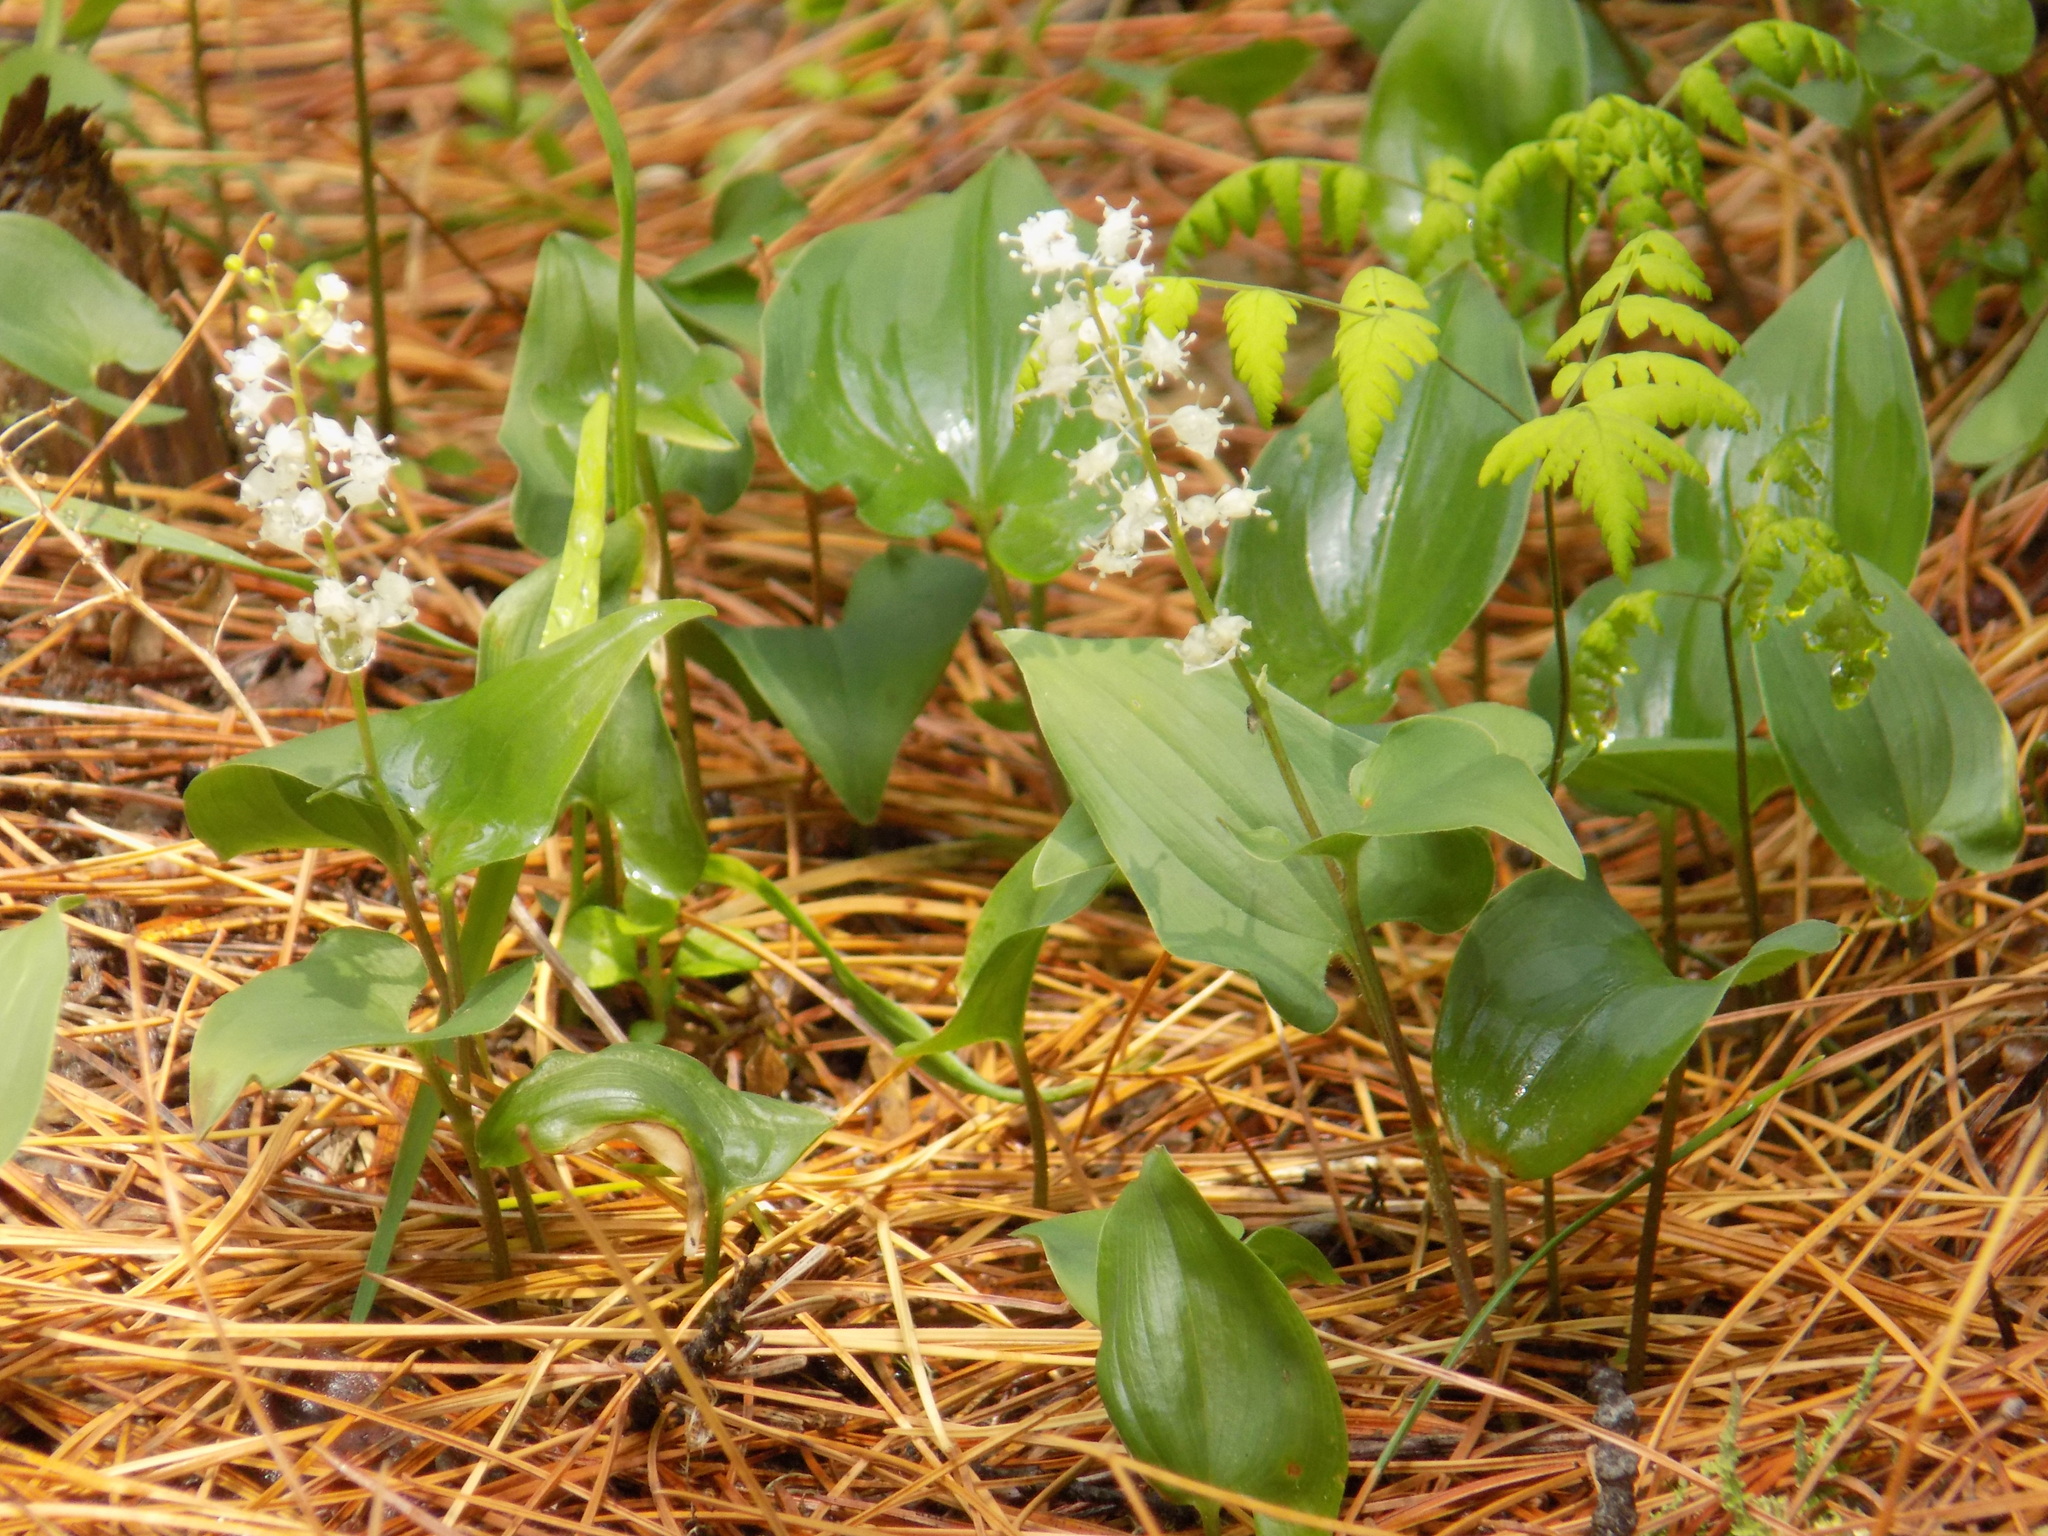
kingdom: Plantae
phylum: Tracheophyta
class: Liliopsida
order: Asparagales
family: Asparagaceae
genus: Maianthemum
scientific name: Maianthemum bifolium
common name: May lily
